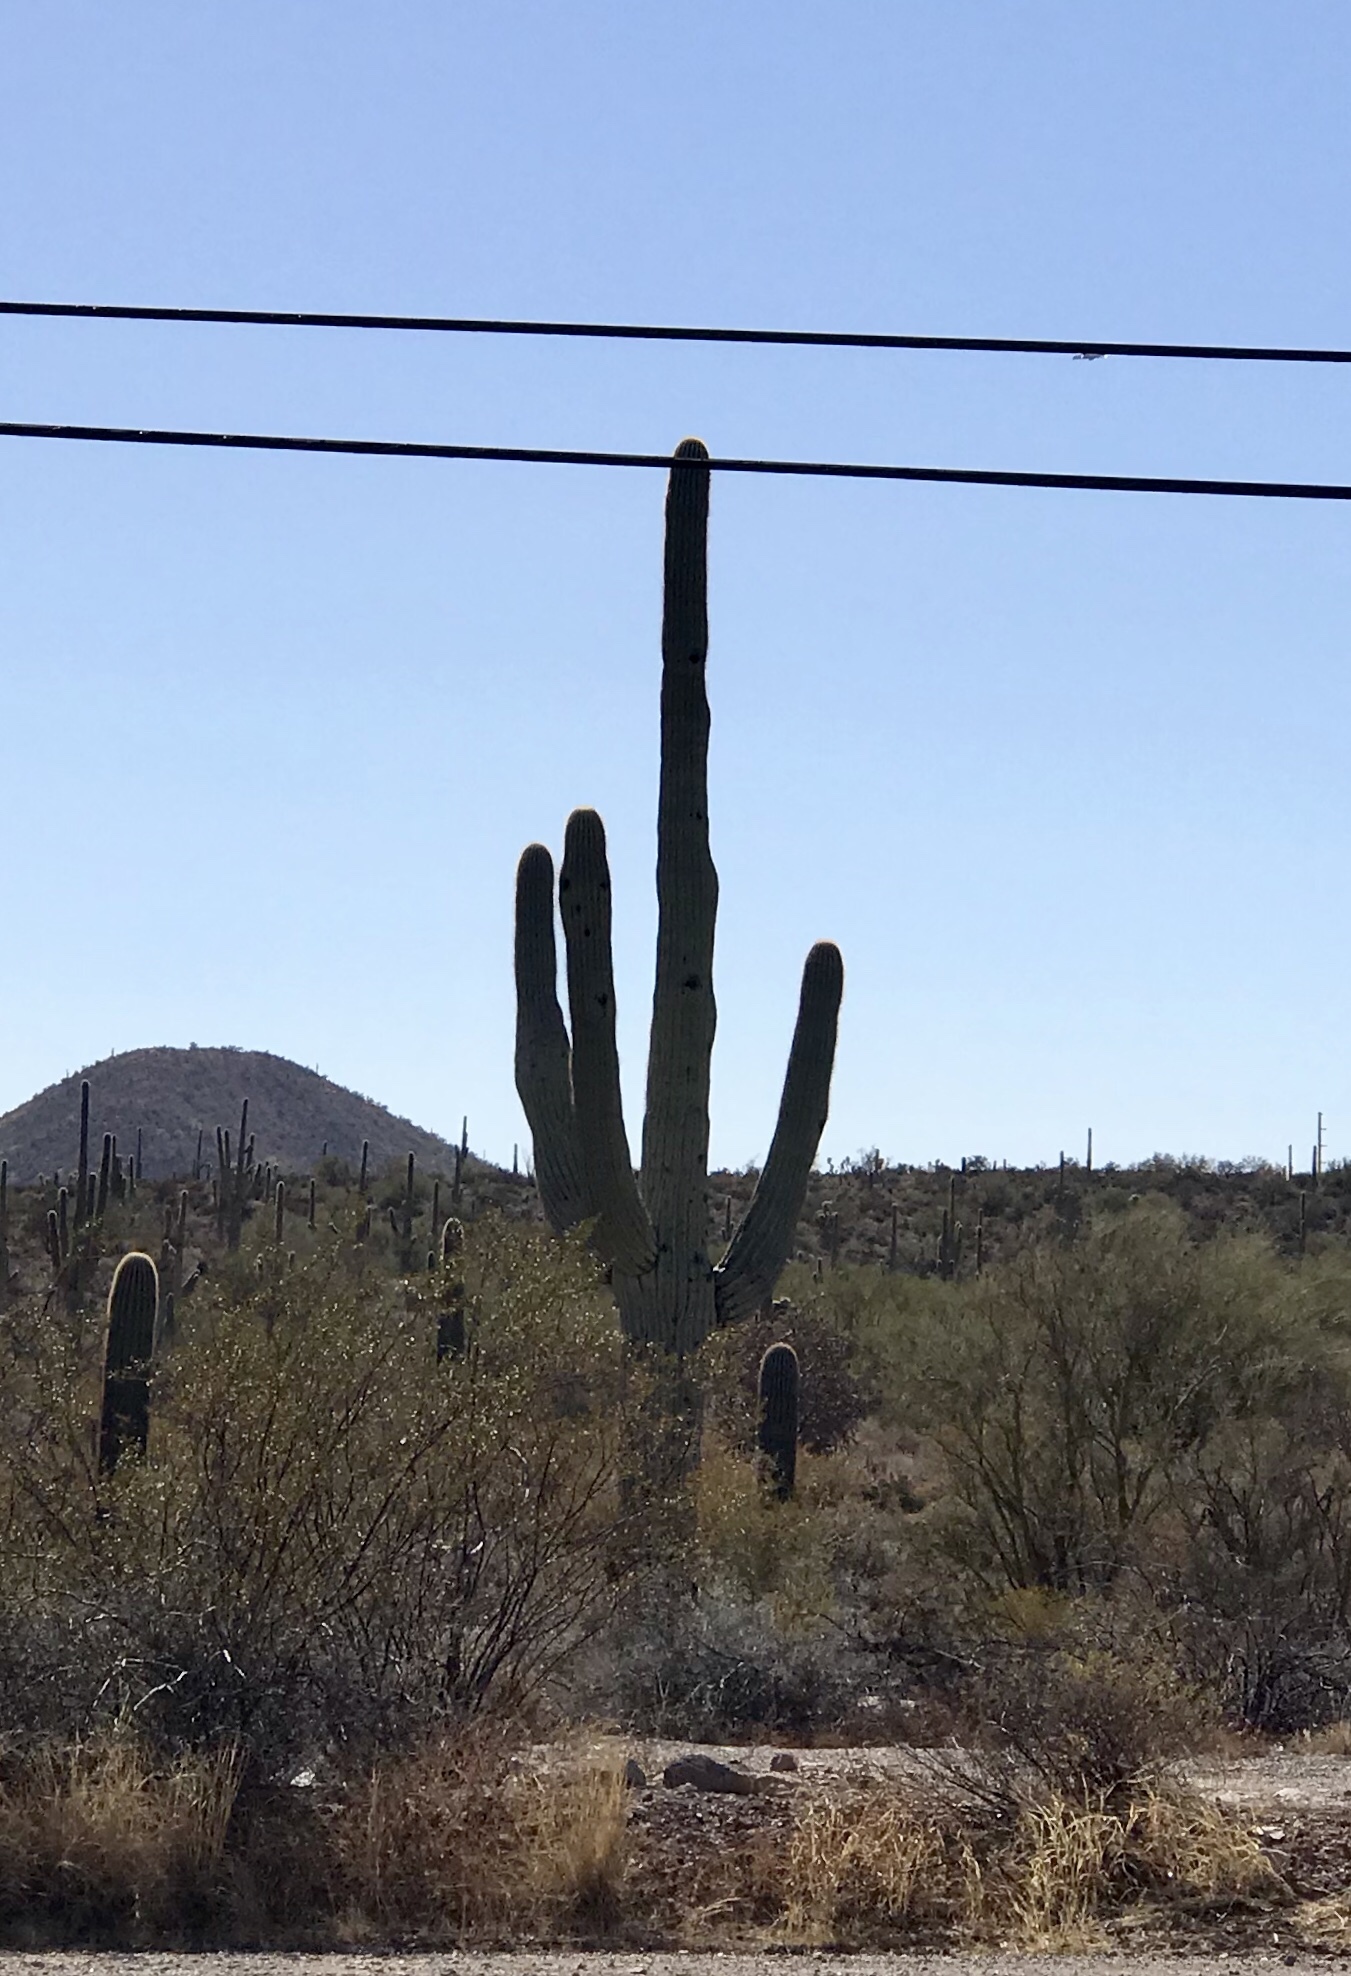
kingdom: Plantae
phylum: Tracheophyta
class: Magnoliopsida
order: Caryophyllales
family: Cactaceae
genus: Carnegiea
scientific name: Carnegiea gigantea
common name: Saguaro
